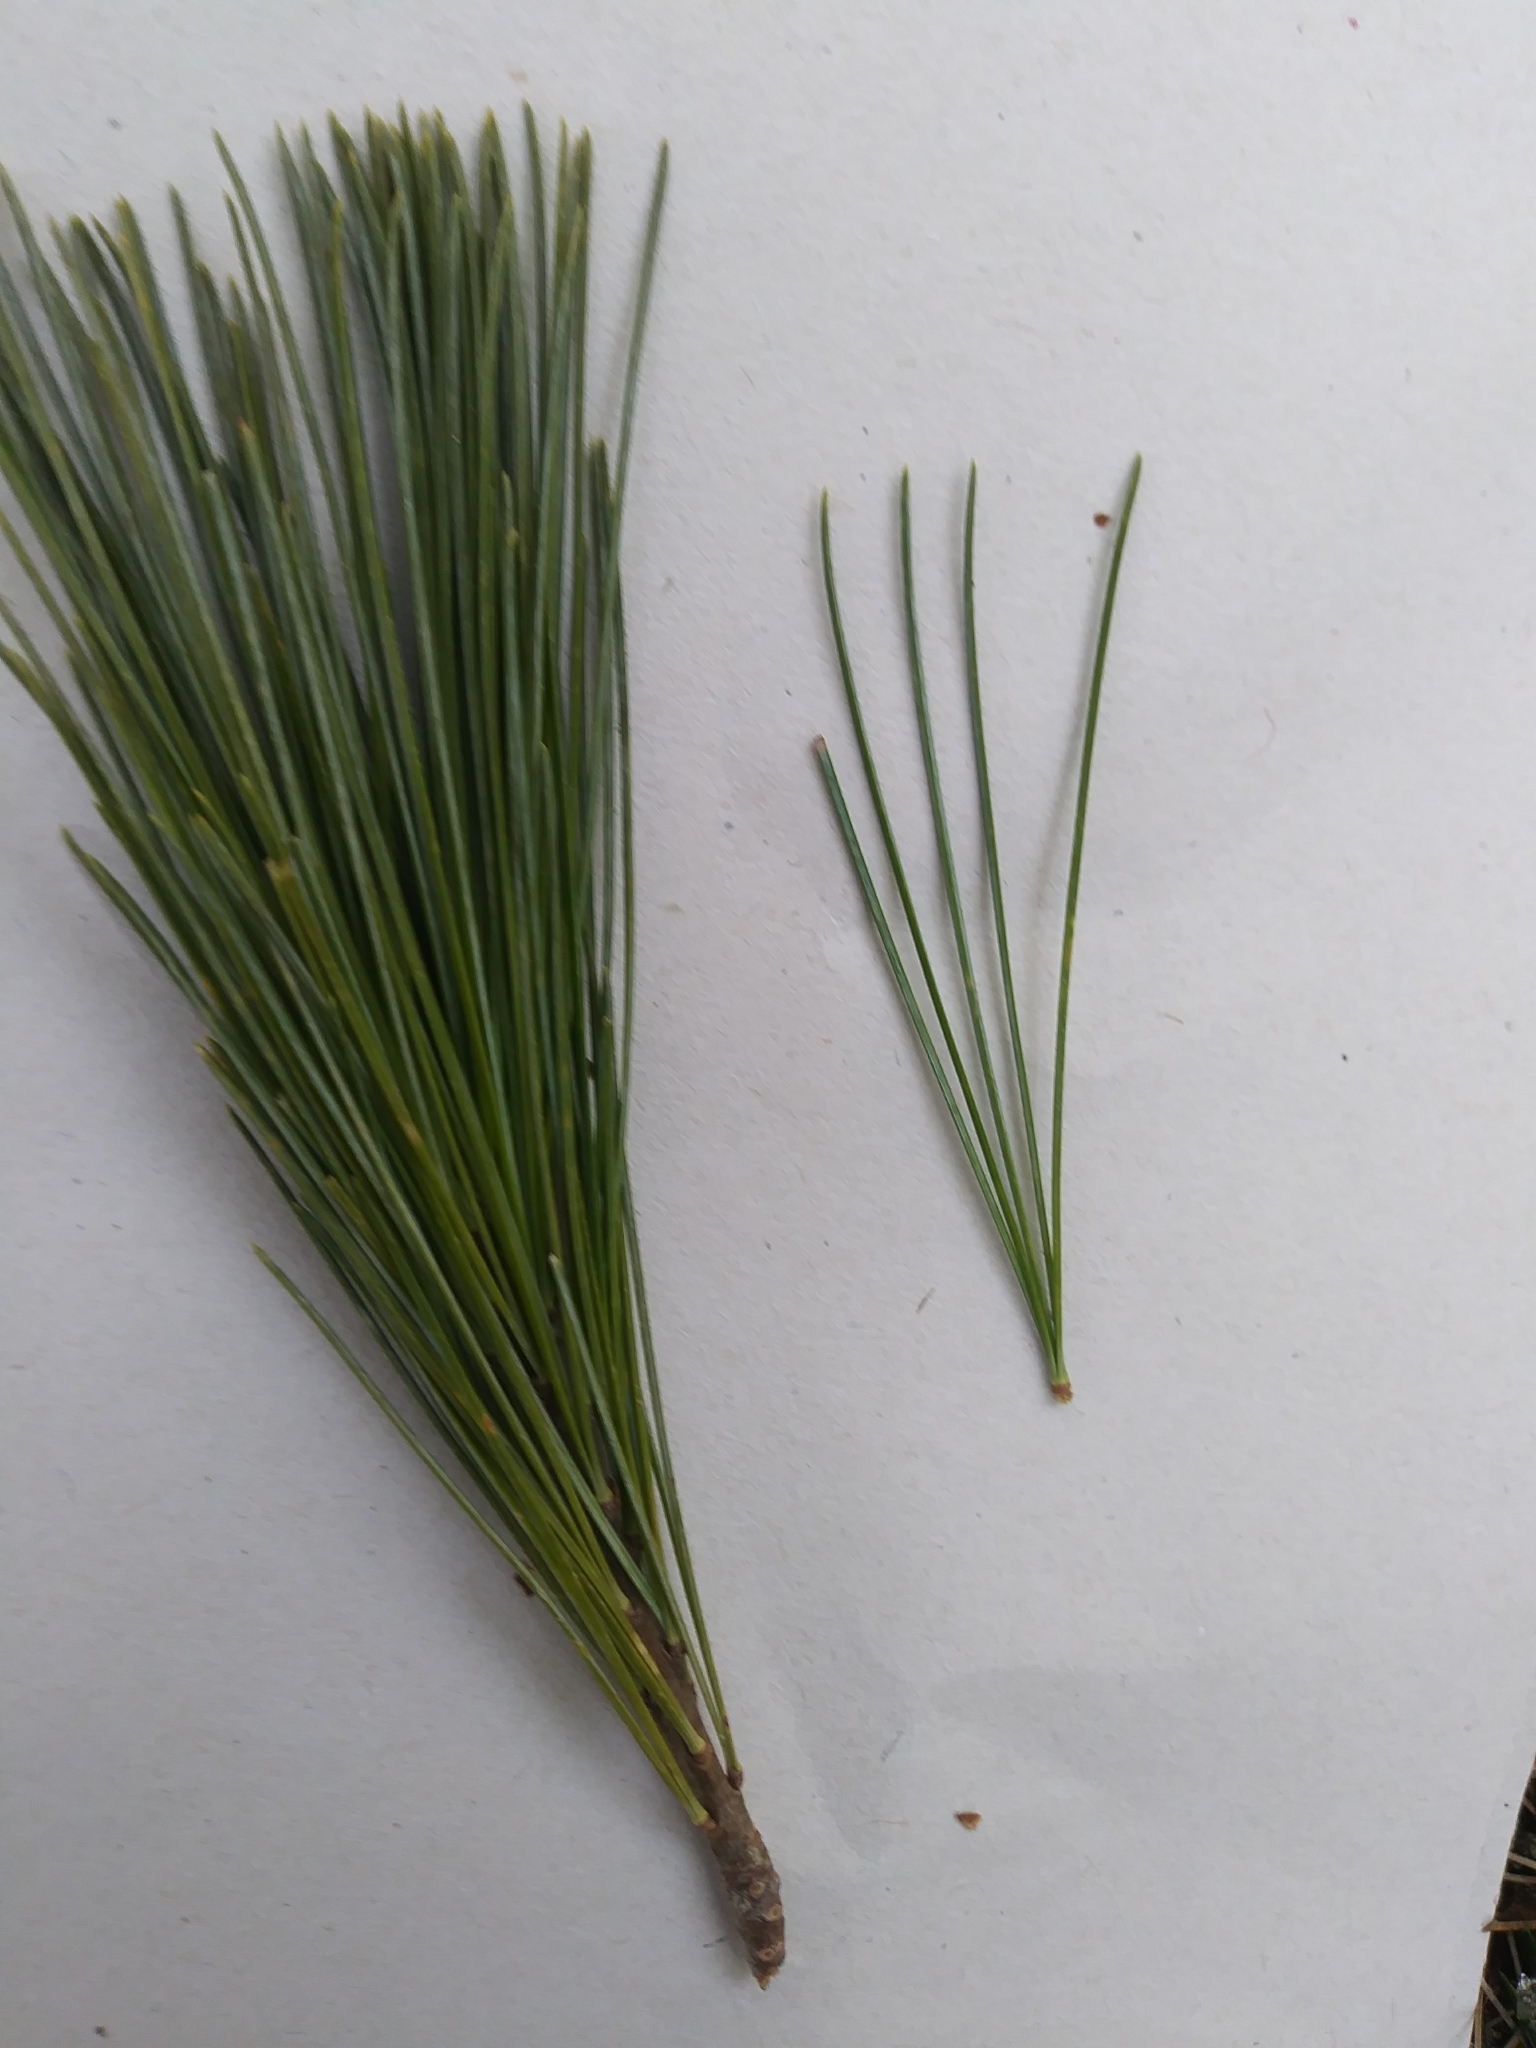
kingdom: Plantae
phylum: Tracheophyta
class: Pinopsida
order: Pinales
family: Pinaceae
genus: Pinus
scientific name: Pinus strobus
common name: Weymouth pine
